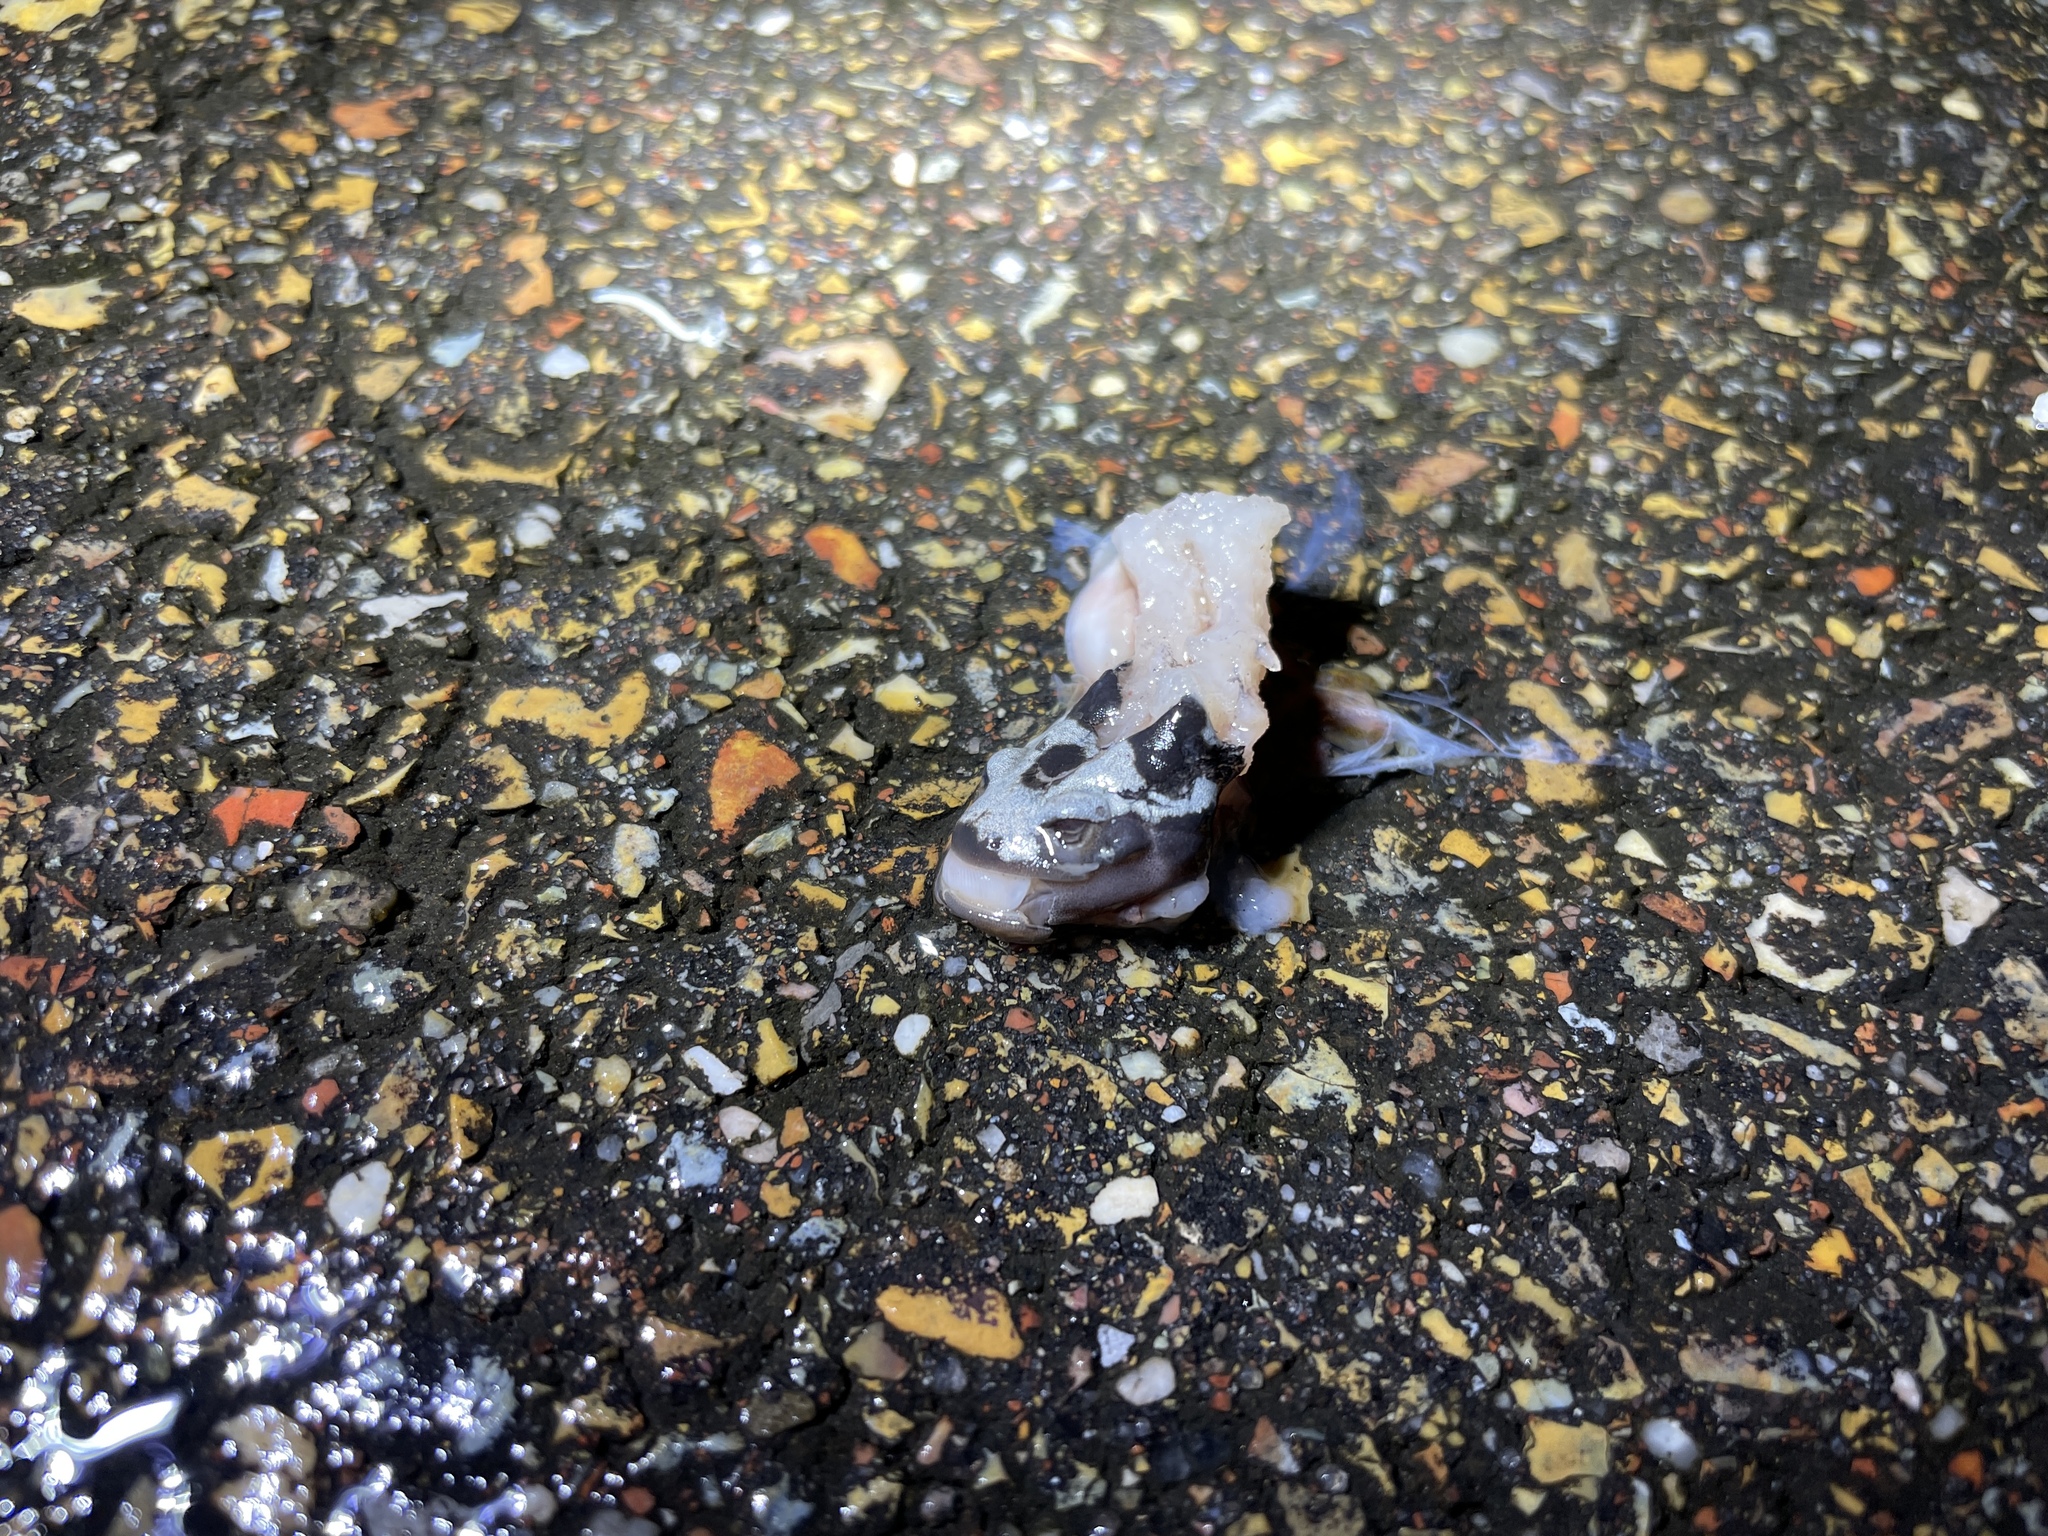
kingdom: Animalia
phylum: Chordata
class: Amphibia
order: Caudata
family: Ambystomatidae
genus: Ambystoma
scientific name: Ambystoma opacum
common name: Marbled salamander
